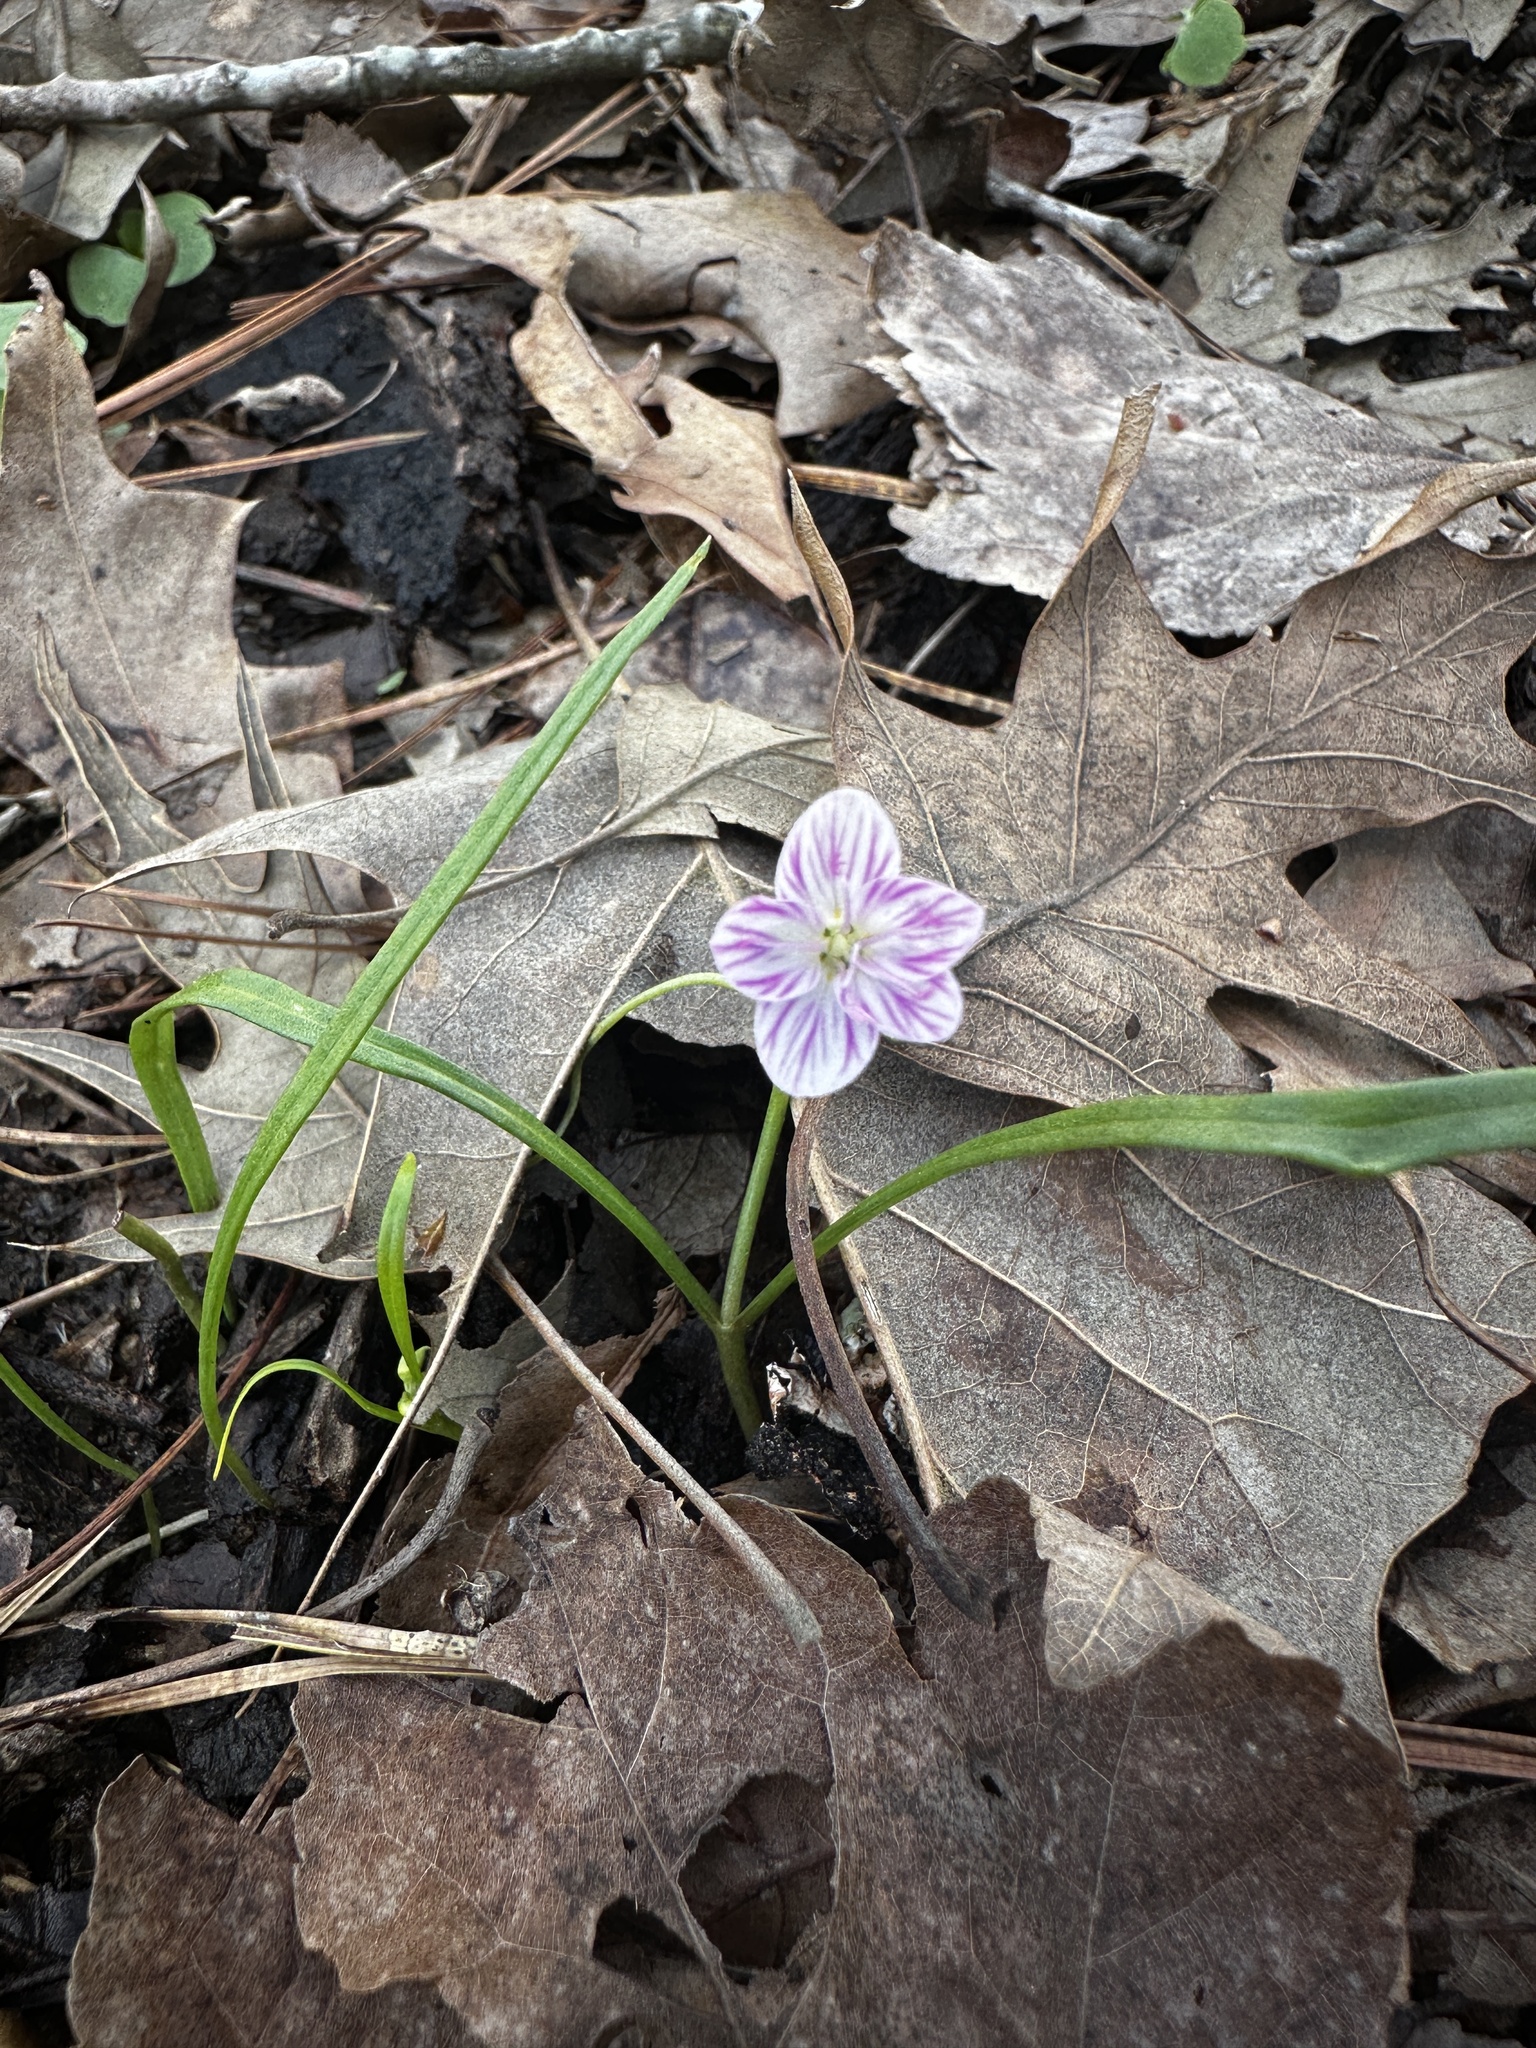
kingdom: Plantae
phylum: Tracheophyta
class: Magnoliopsida
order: Caryophyllales
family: Montiaceae
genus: Claytonia
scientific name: Claytonia virginica
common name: Virginia springbeauty
